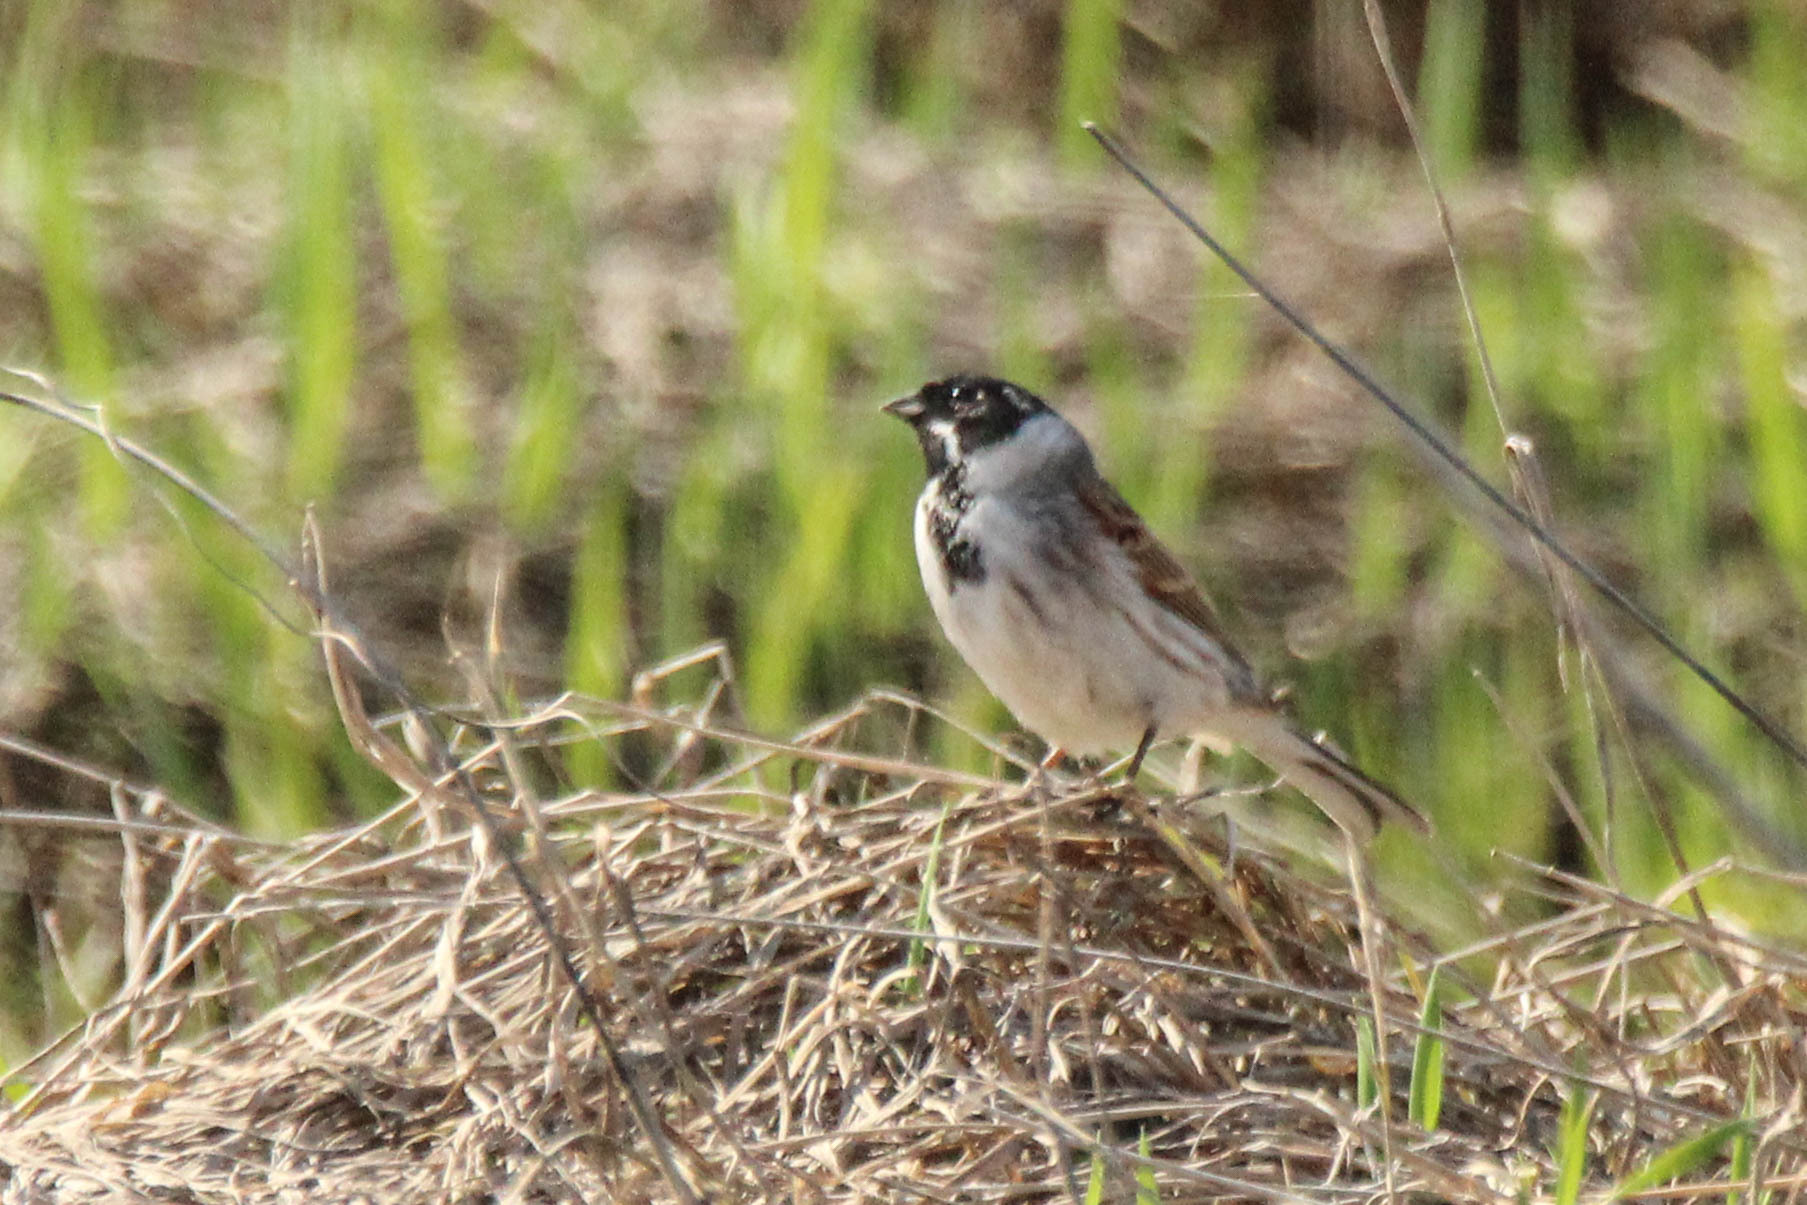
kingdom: Animalia
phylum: Chordata
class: Aves
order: Passeriformes
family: Emberizidae
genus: Emberiza
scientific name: Emberiza schoeniclus
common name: Reed bunting
